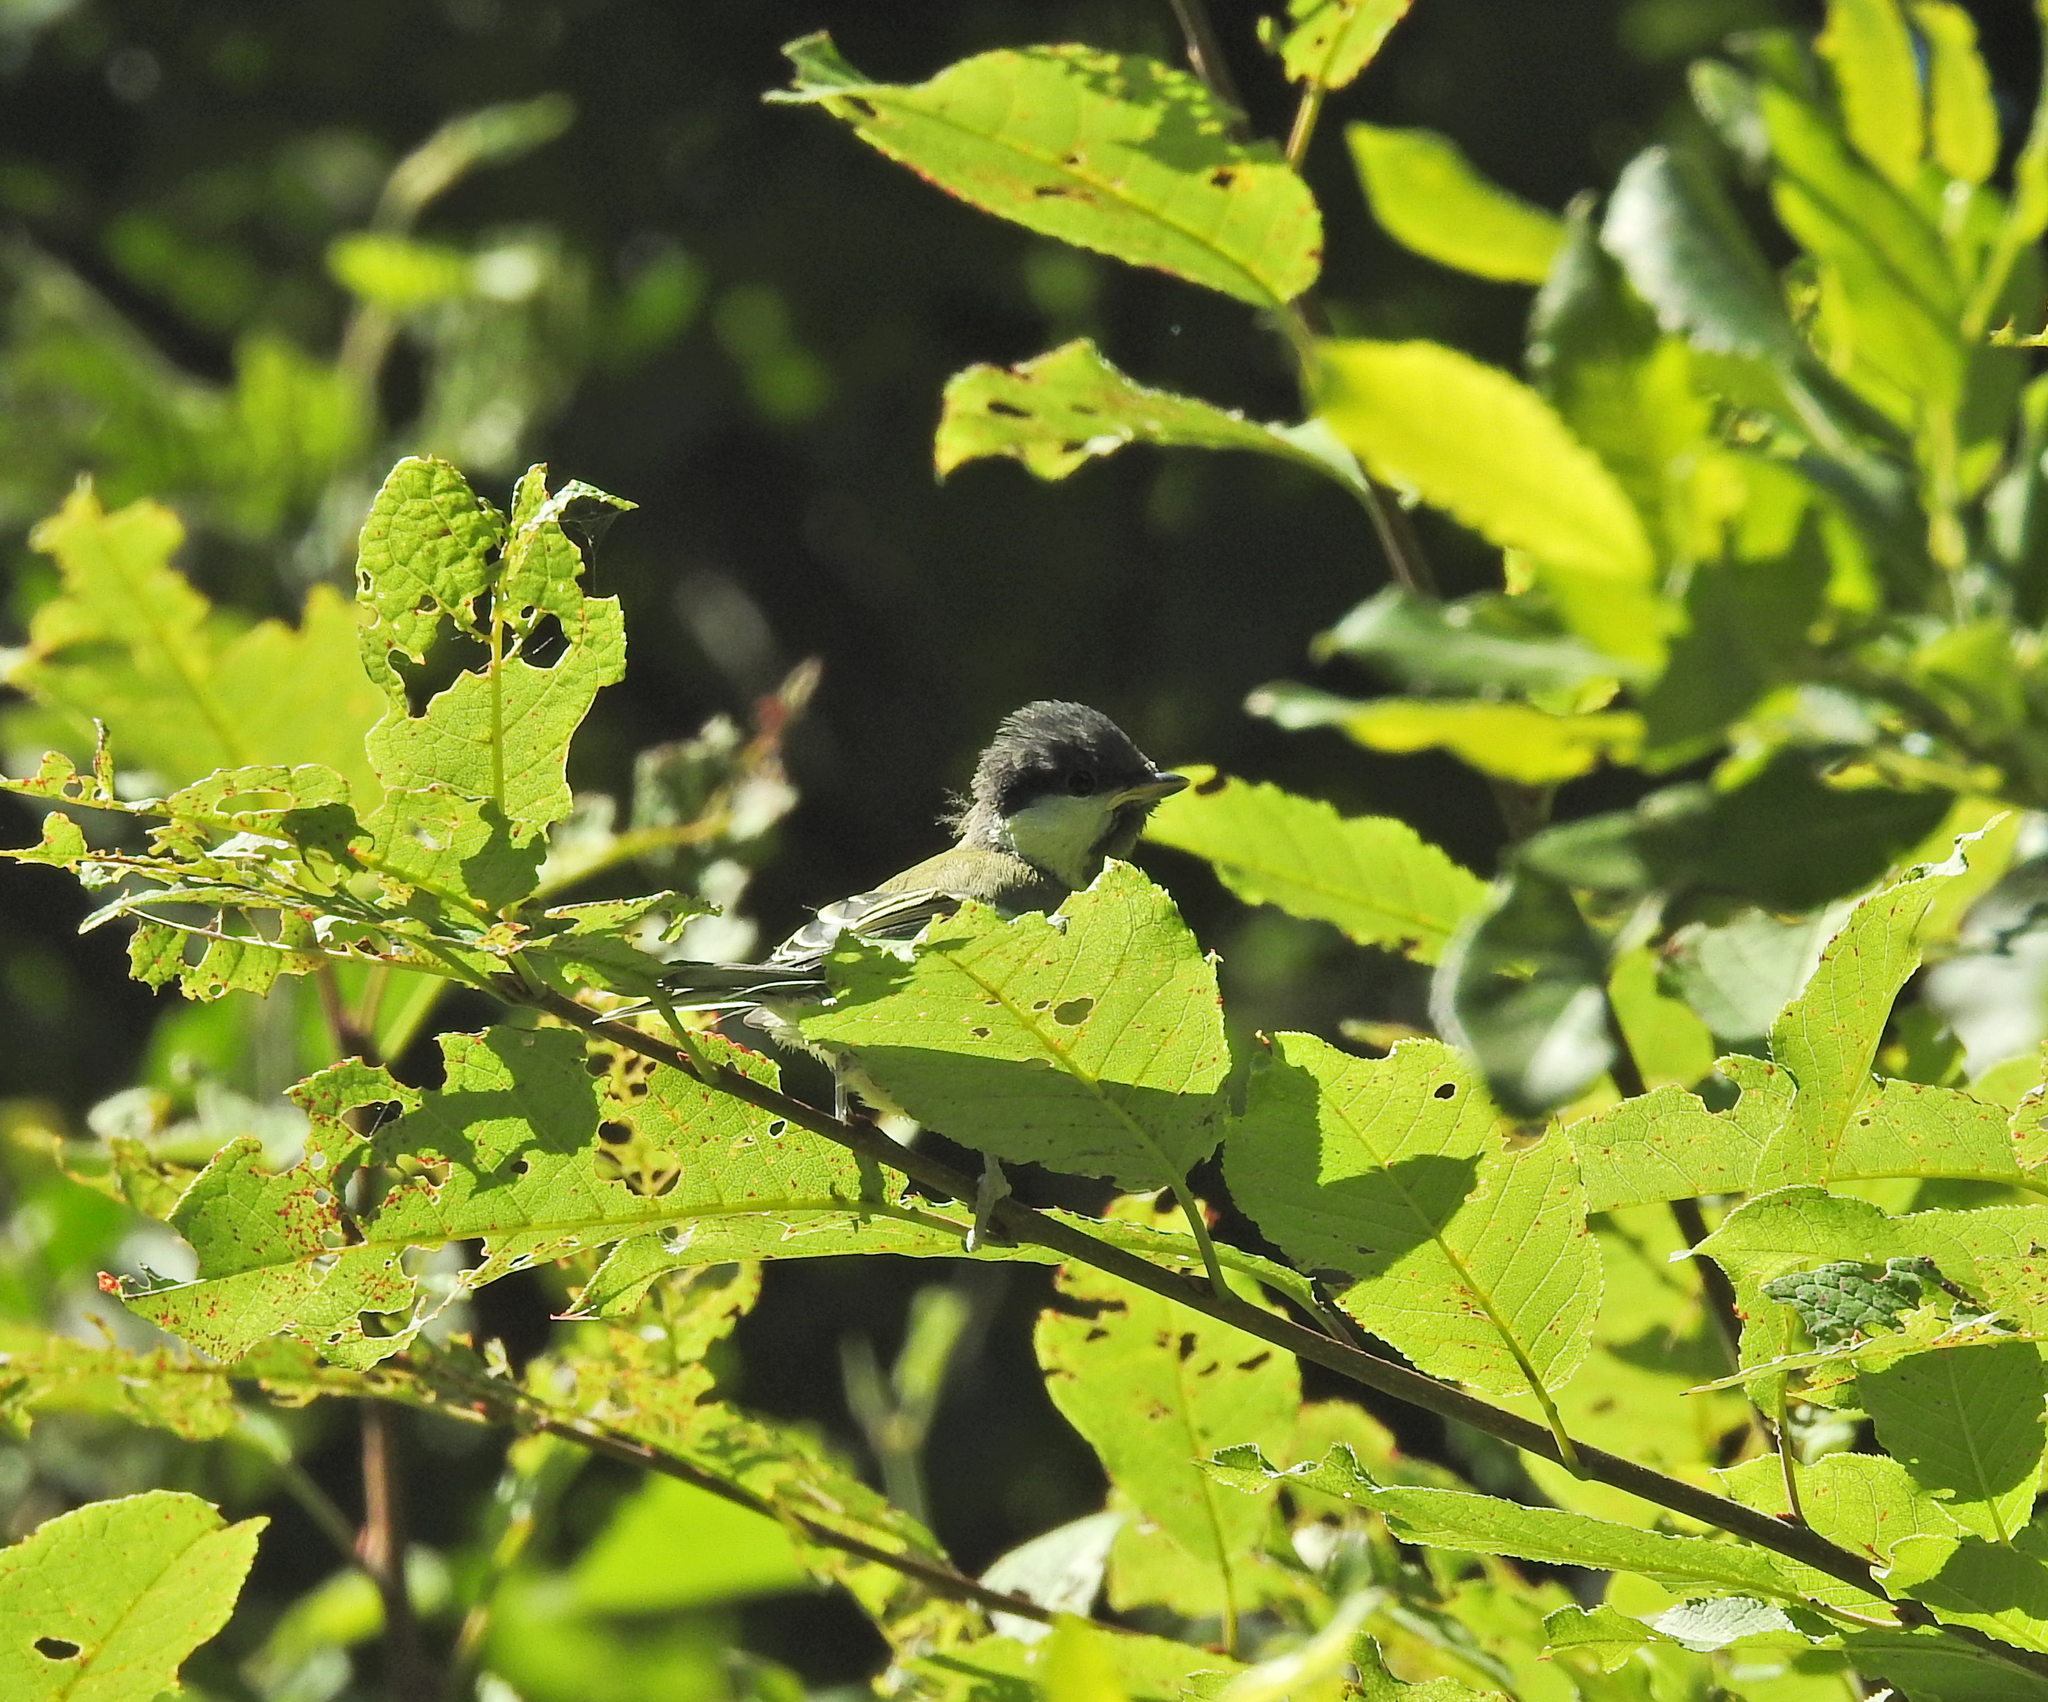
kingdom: Animalia
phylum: Chordata
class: Aves
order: Passeriformes
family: Paridae
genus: Parus
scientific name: Parus major
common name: Great tit
